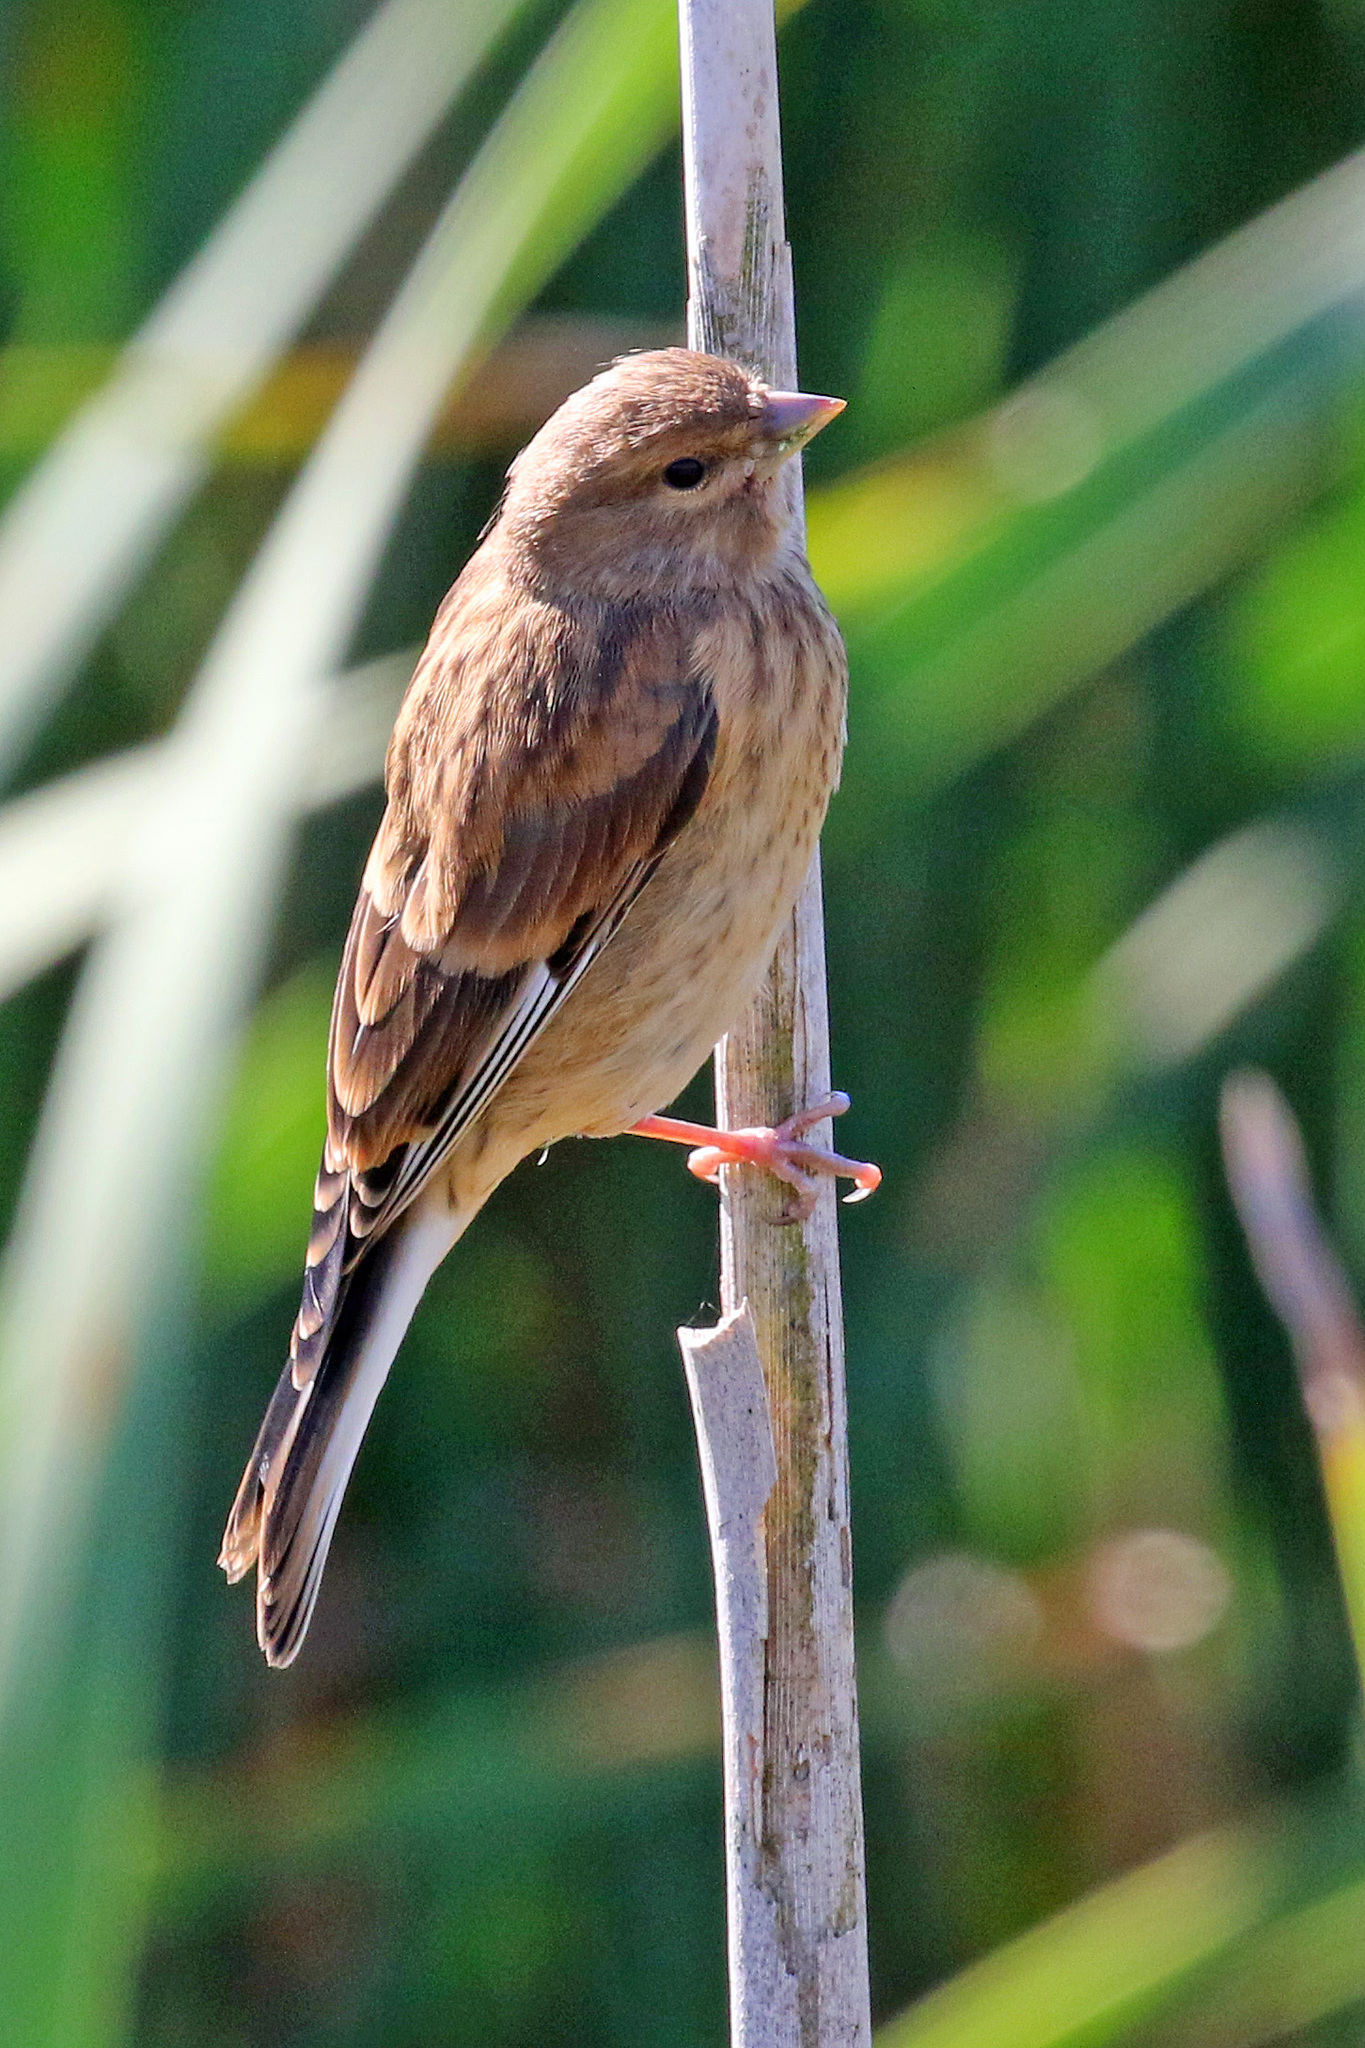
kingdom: Animalia
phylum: Chordata
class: Aves
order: Passeriformes
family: Fringillidae
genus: Linaria
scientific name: Linaria cannabina
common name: Common linnet
